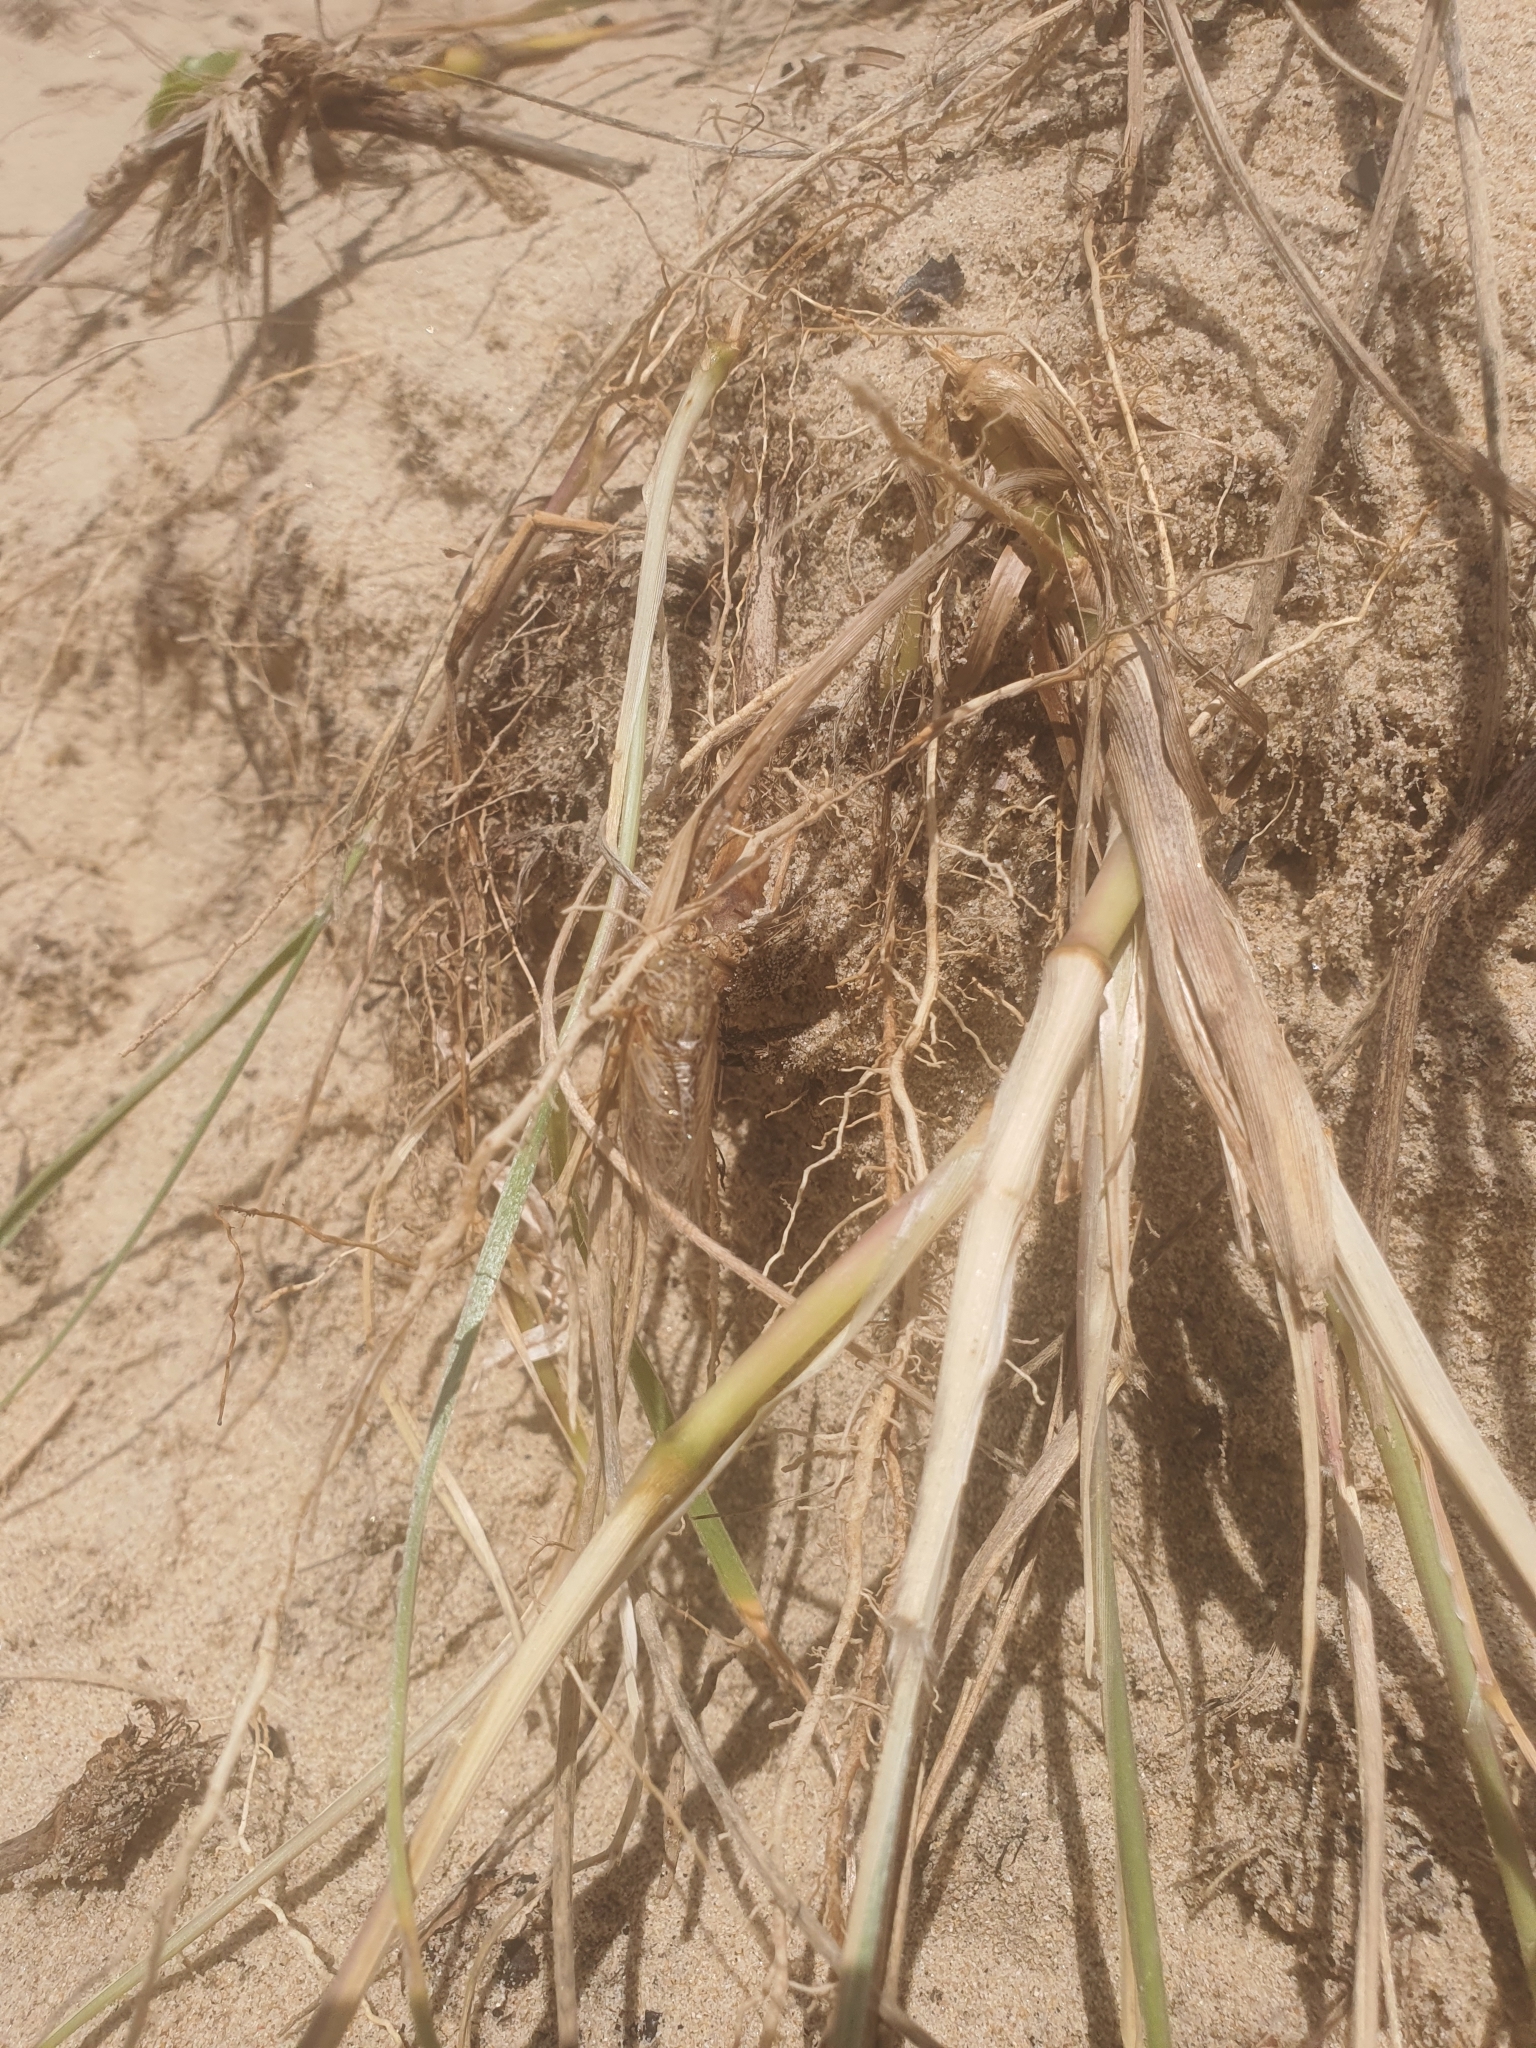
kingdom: Animalia
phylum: Arthropoda
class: Insecta
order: Hemiptera
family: Cicadidae
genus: Sylphoides
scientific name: Sylphoides arenaria
